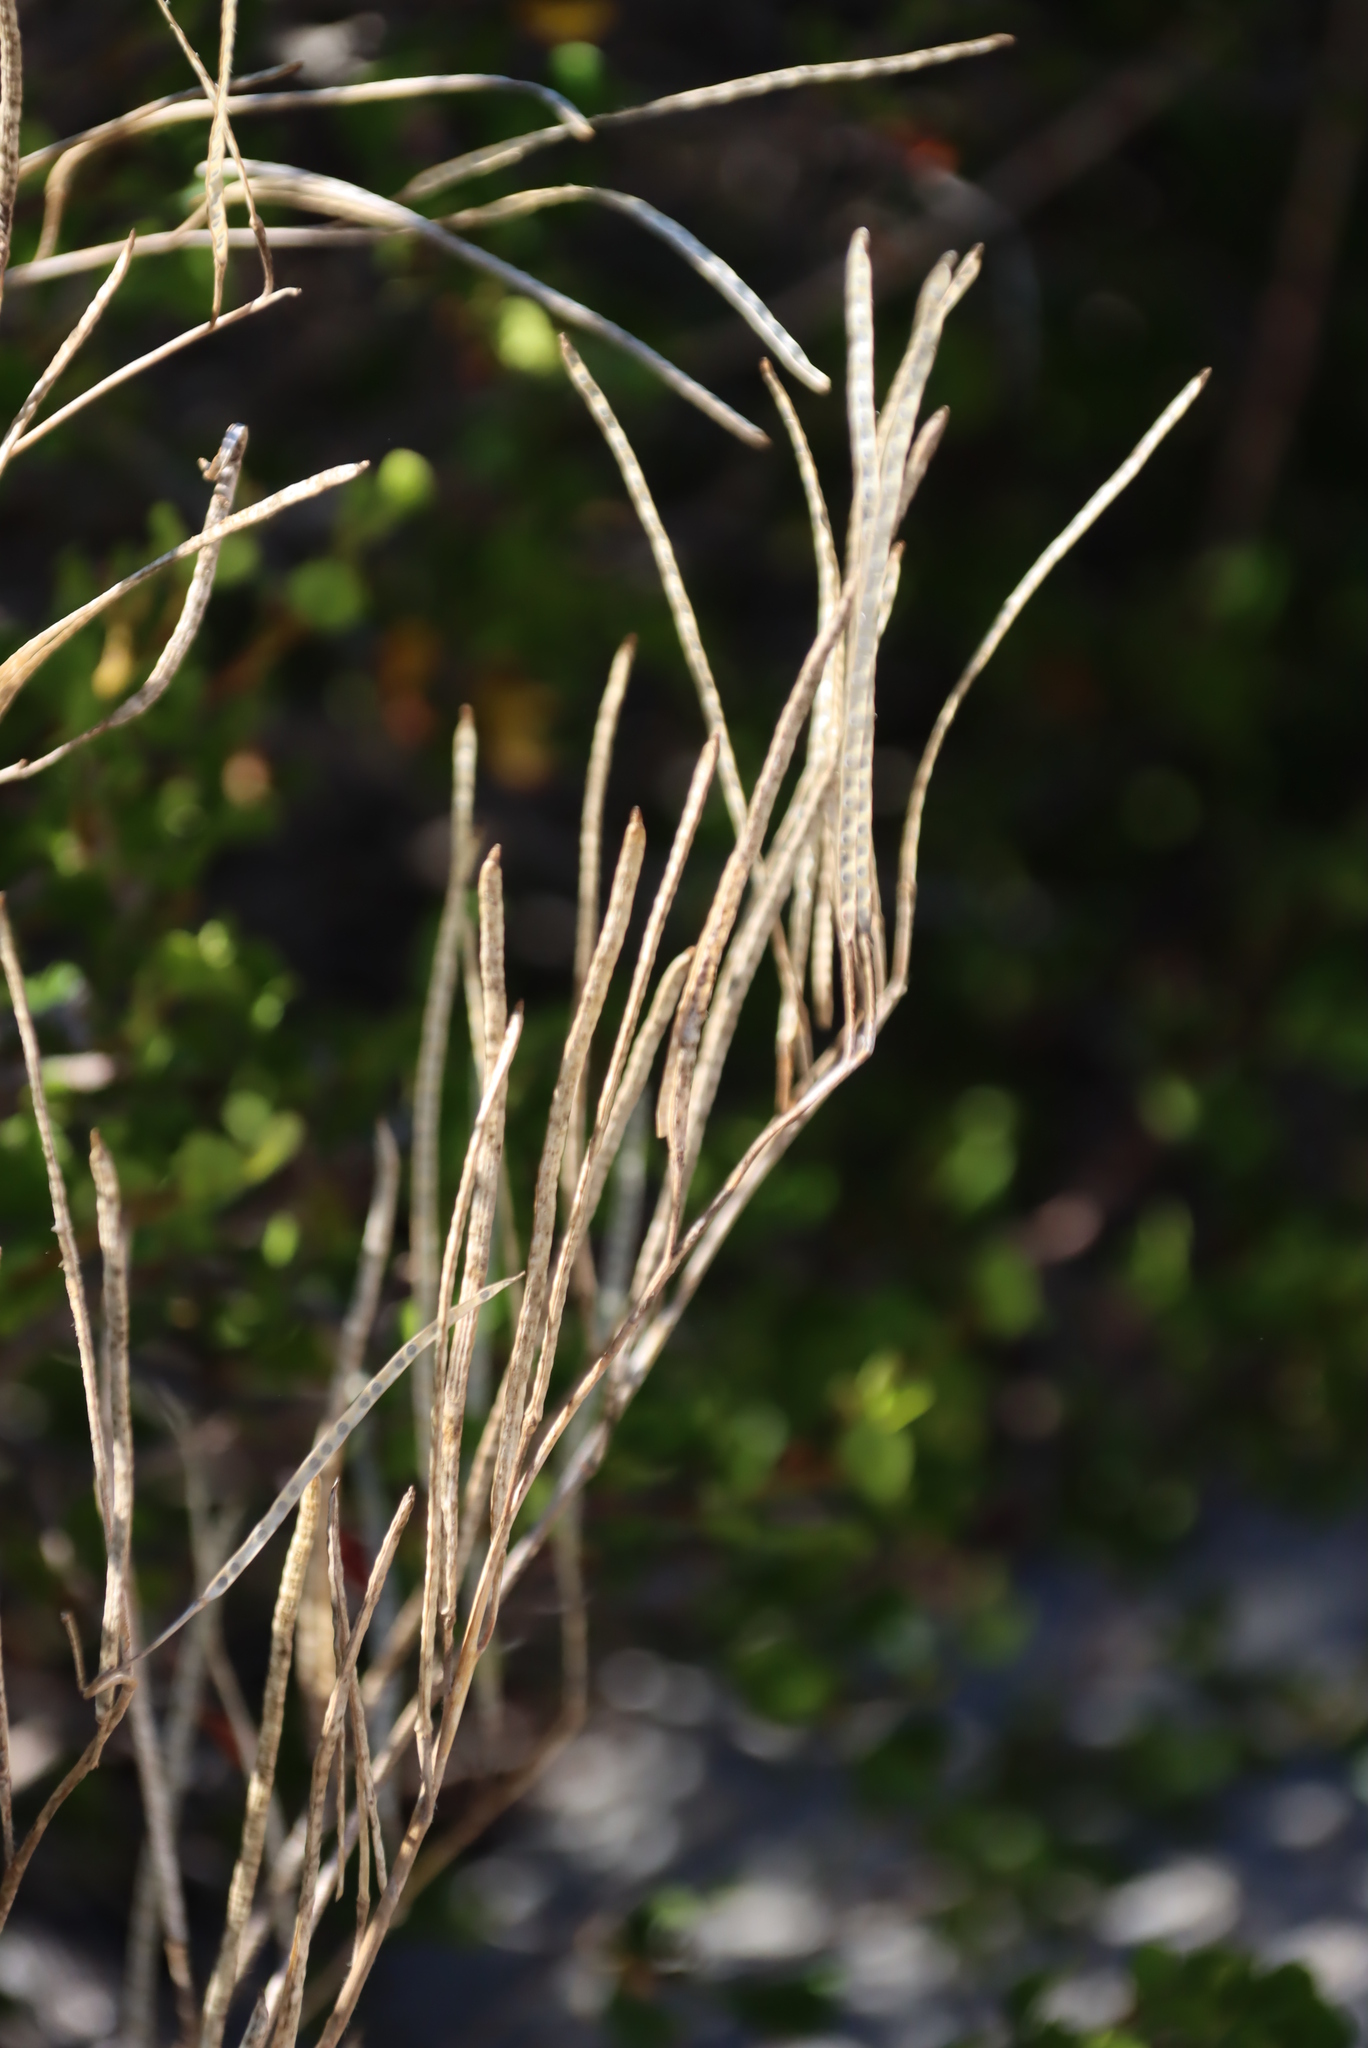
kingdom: Plantae
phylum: Tracheophyta
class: Magnoliopsida
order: Brassicales
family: Brassicaceae
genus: Heliophila
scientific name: Heliophila linearis
